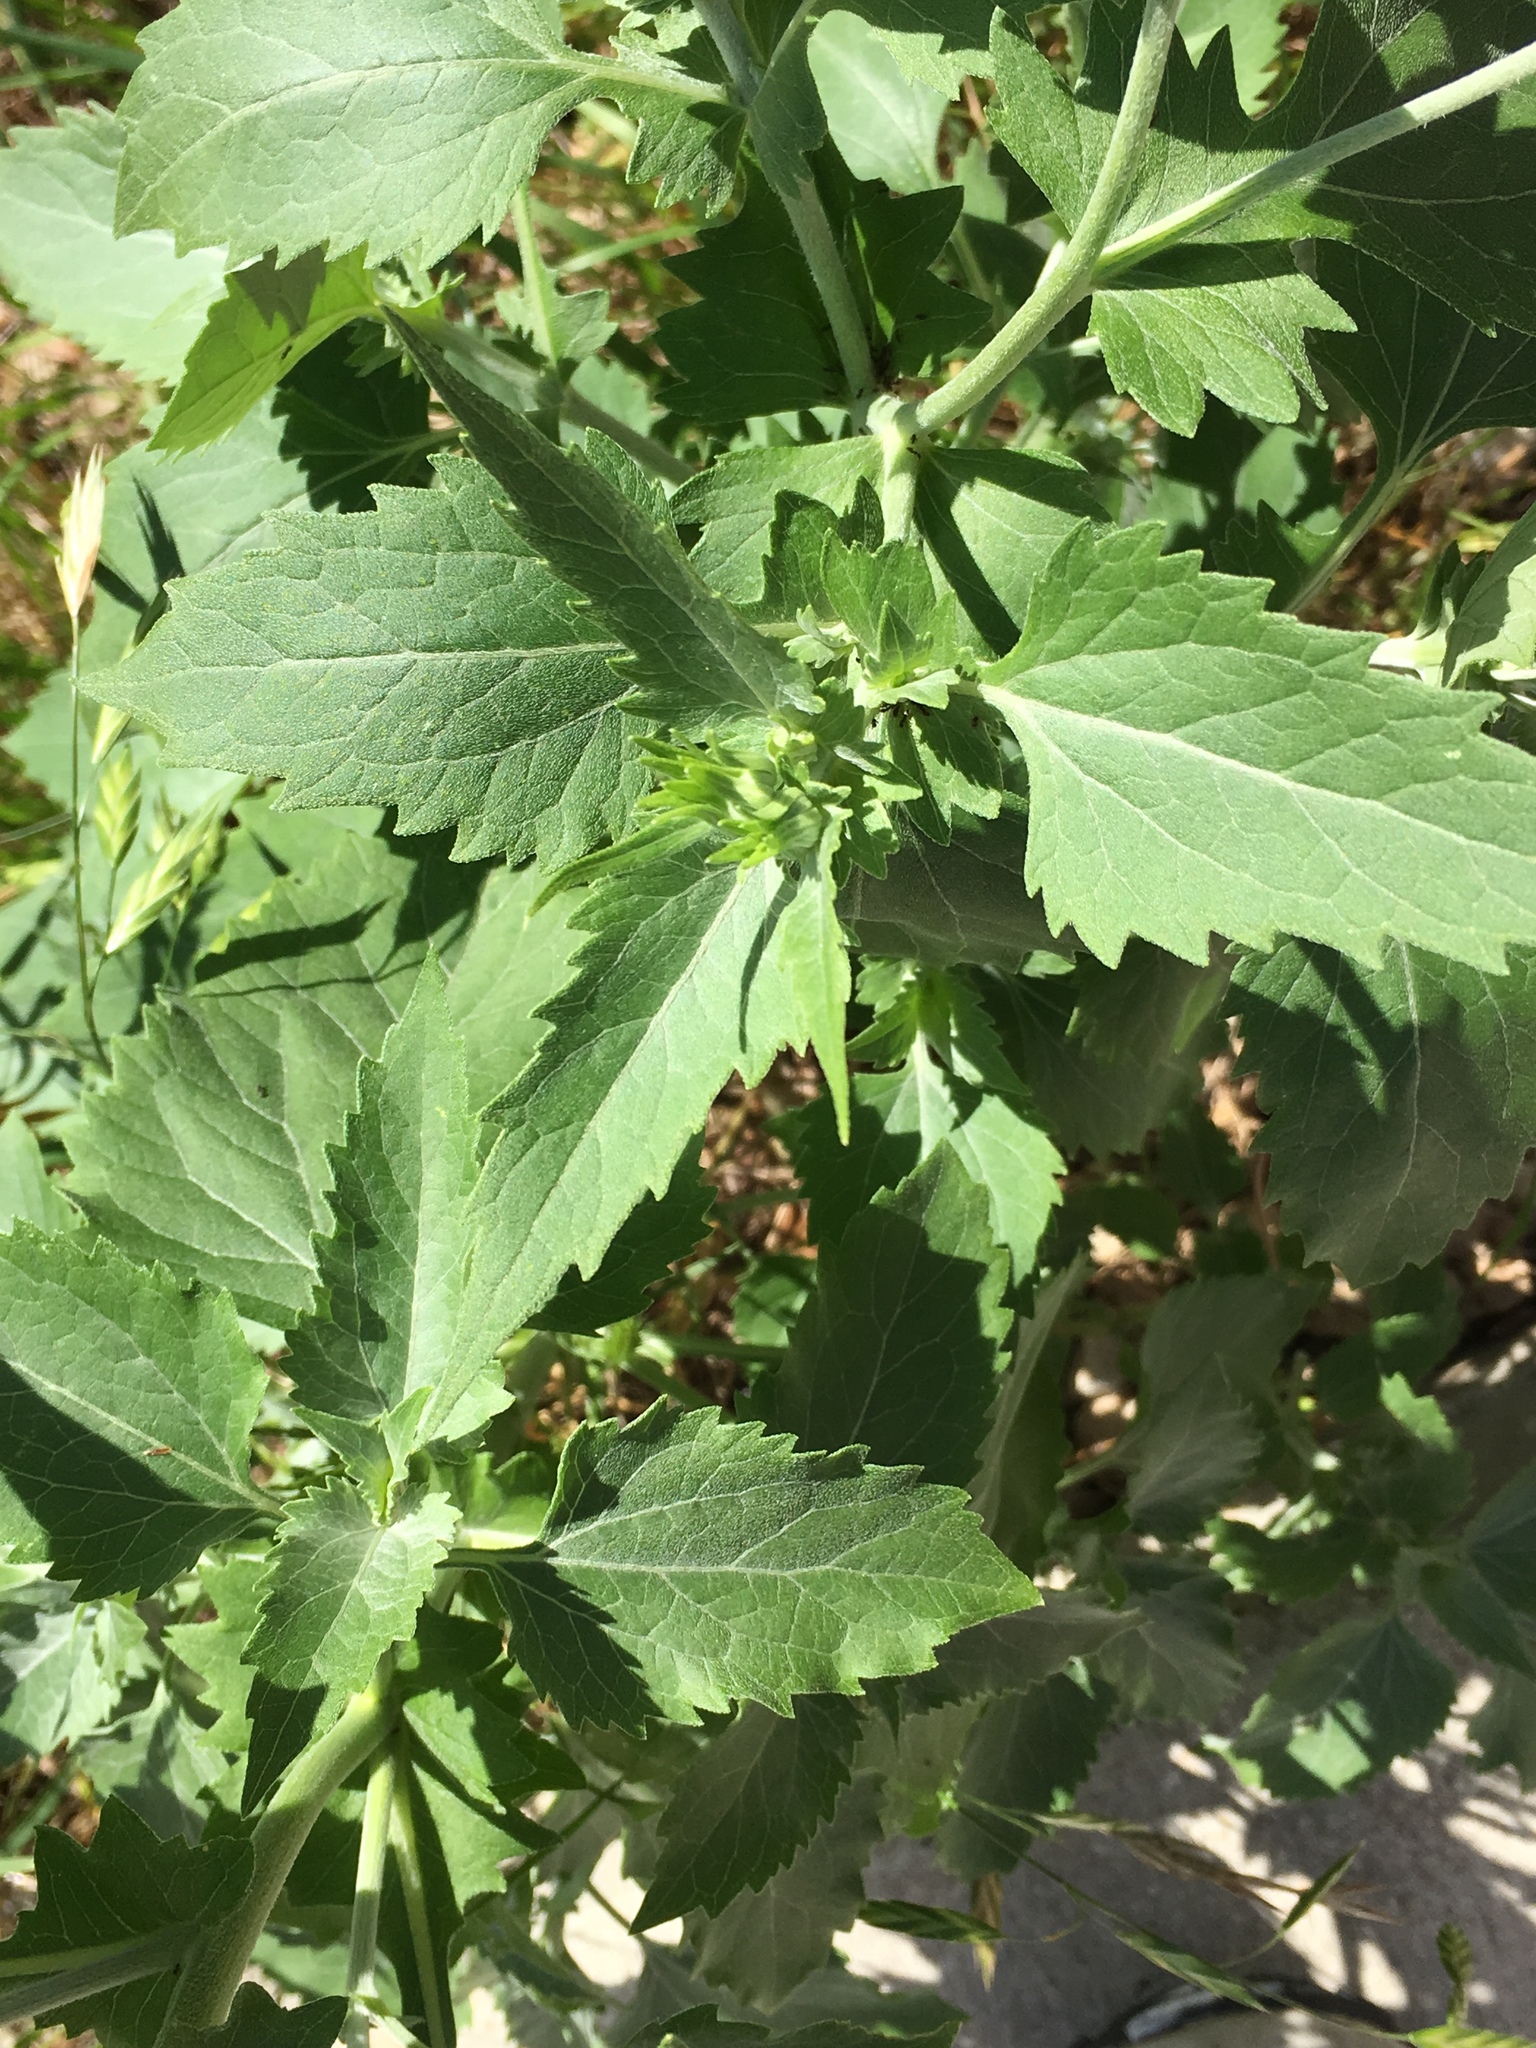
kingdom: Plantae
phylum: Tracheophyta
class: Magnoliopsida
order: Asterales
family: Asteraceae
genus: Verbesina
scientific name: Verbesina encelioides
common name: Golden crownbeard
